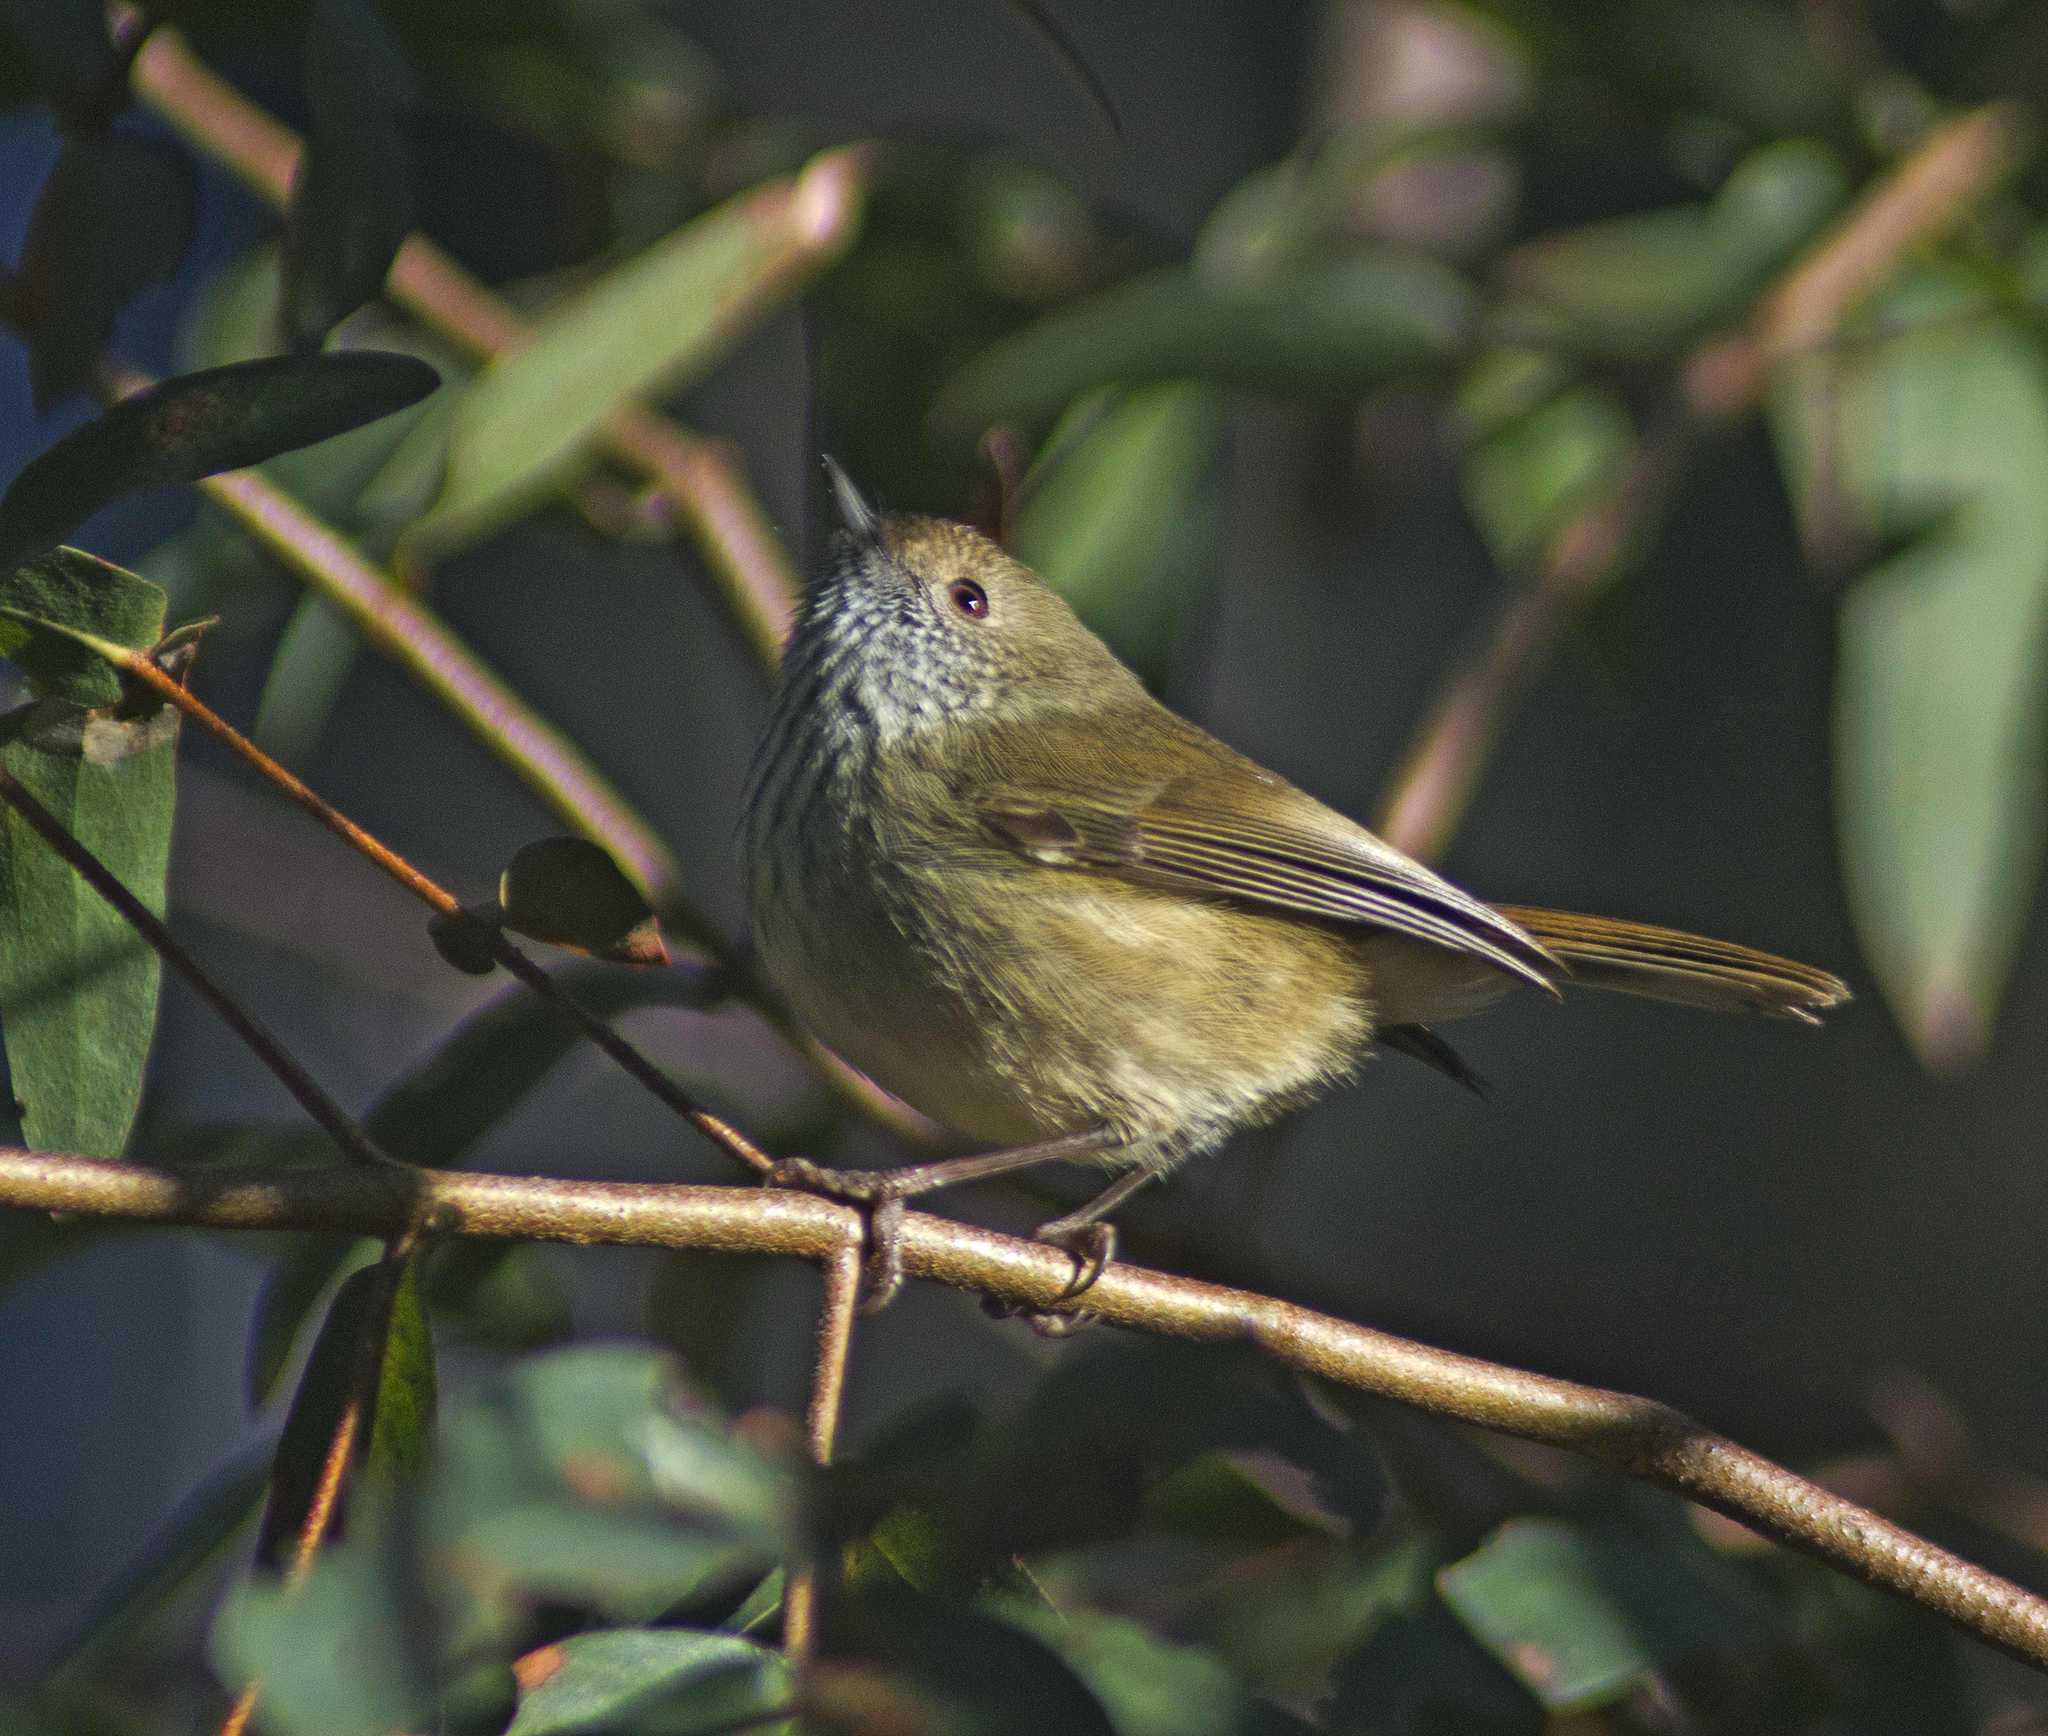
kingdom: Animalia
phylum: Chordata
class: Aves
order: Passeriformes
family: Acanthizidae
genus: Acanthiza
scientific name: Acanthiza pusilla
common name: Brown thornbill
